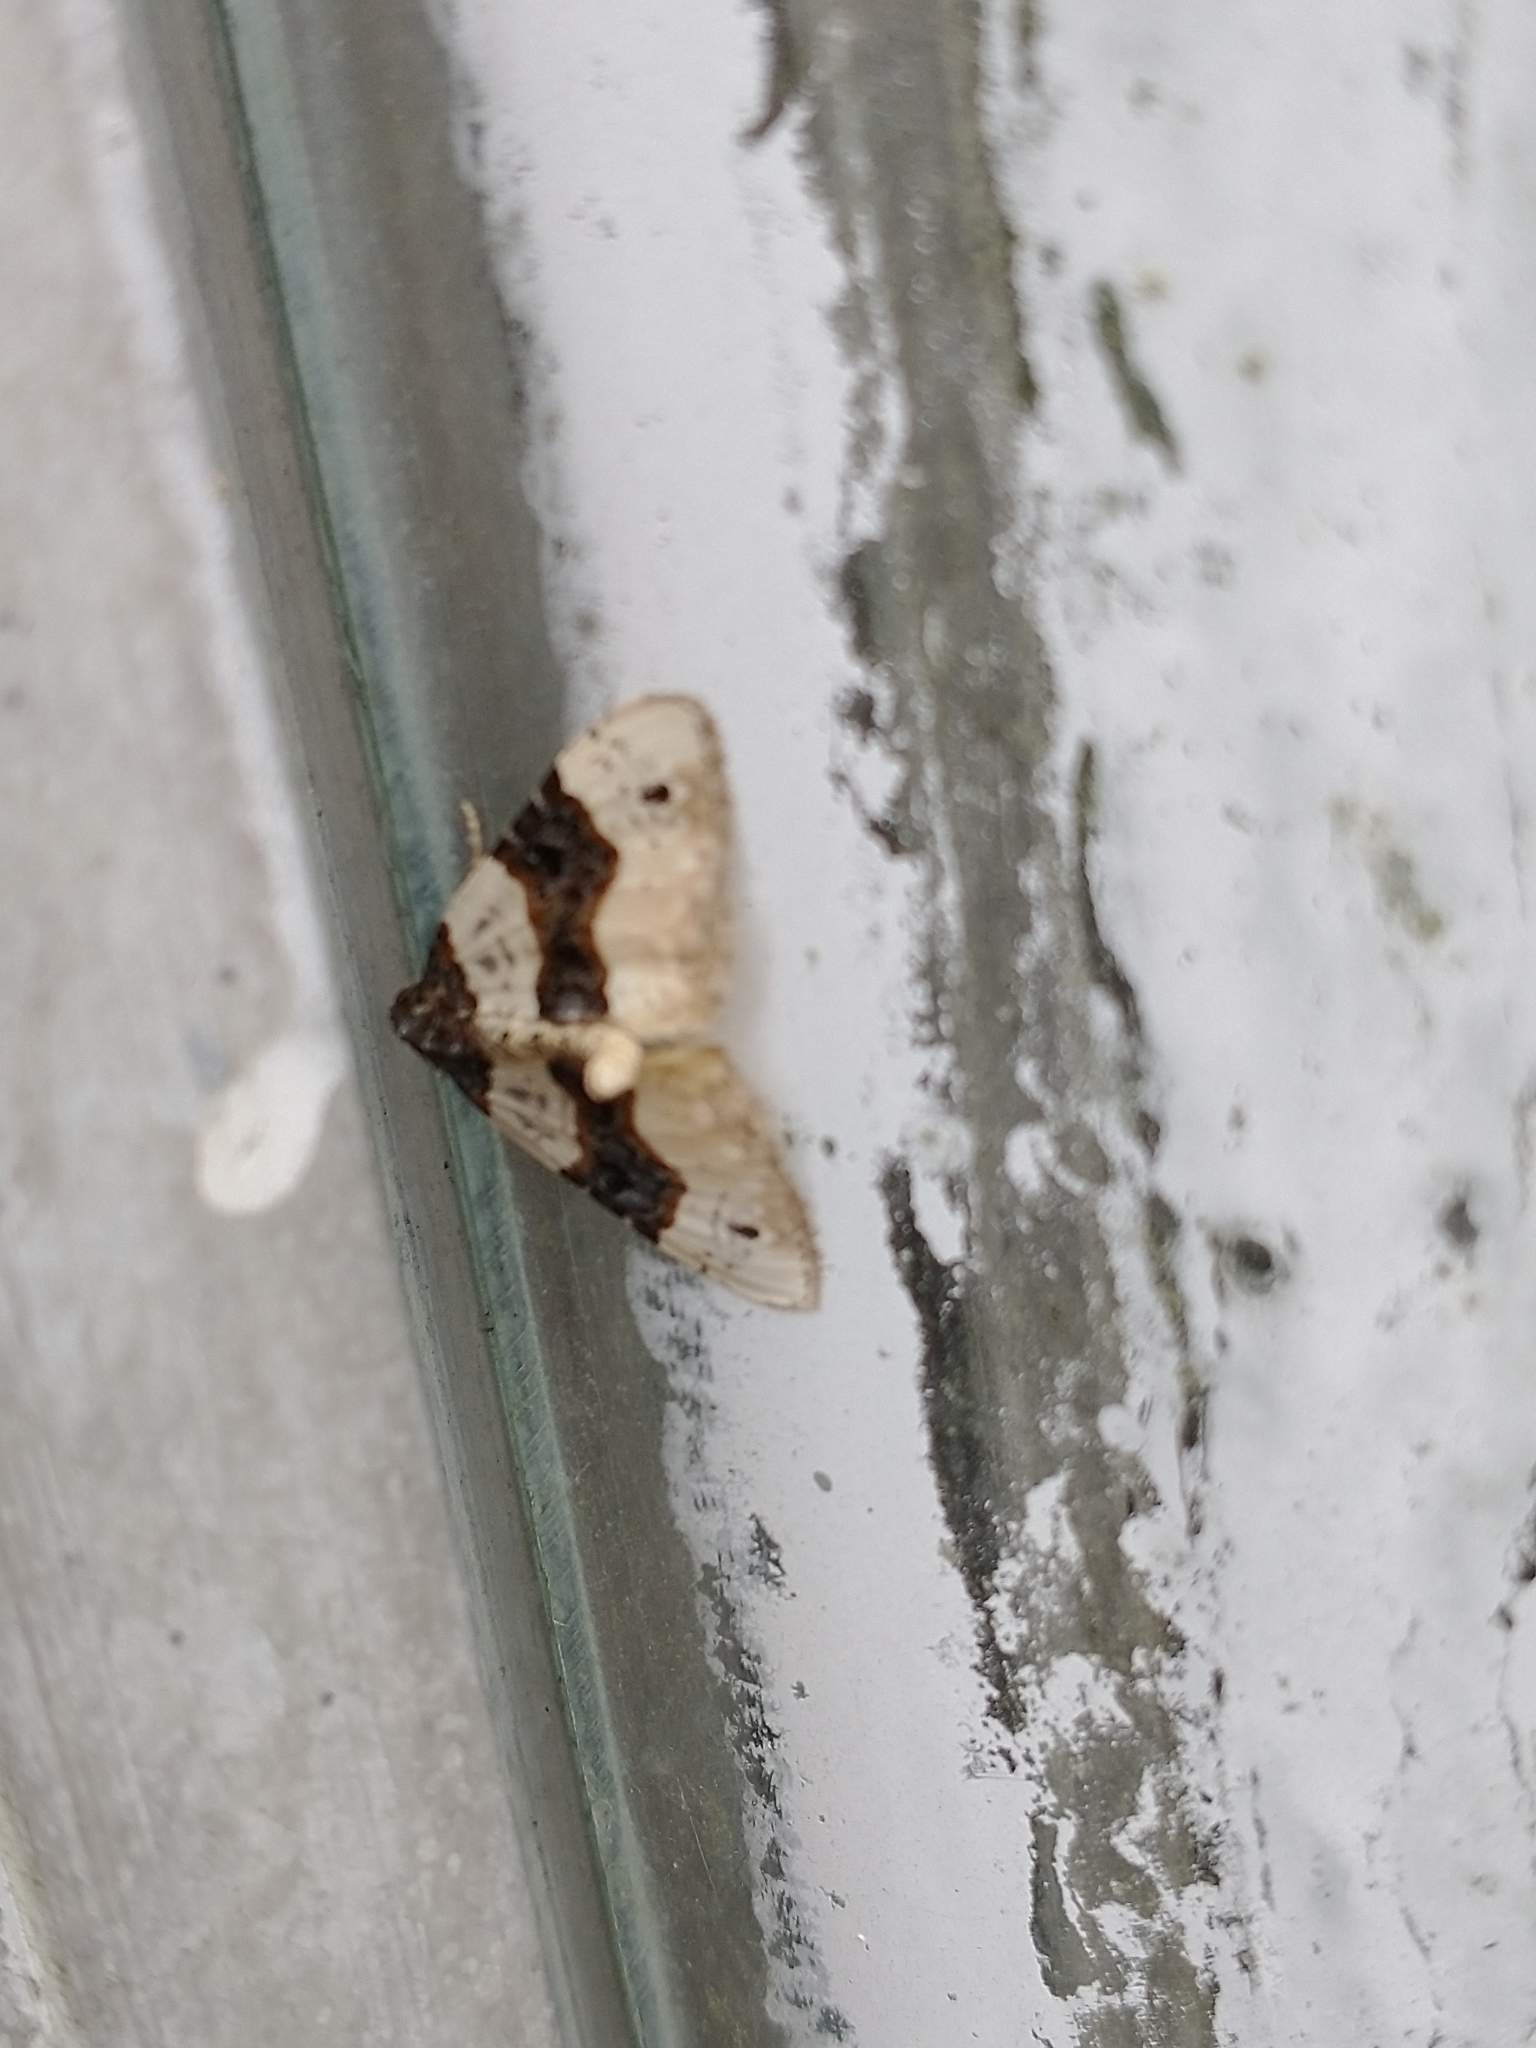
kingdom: Animalia
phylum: Arthropoda
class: Insecta
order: Lepidoptera
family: Geometridae
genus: Cosmorhoe
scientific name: Cosmorhoe ocellata
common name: Purple bar
